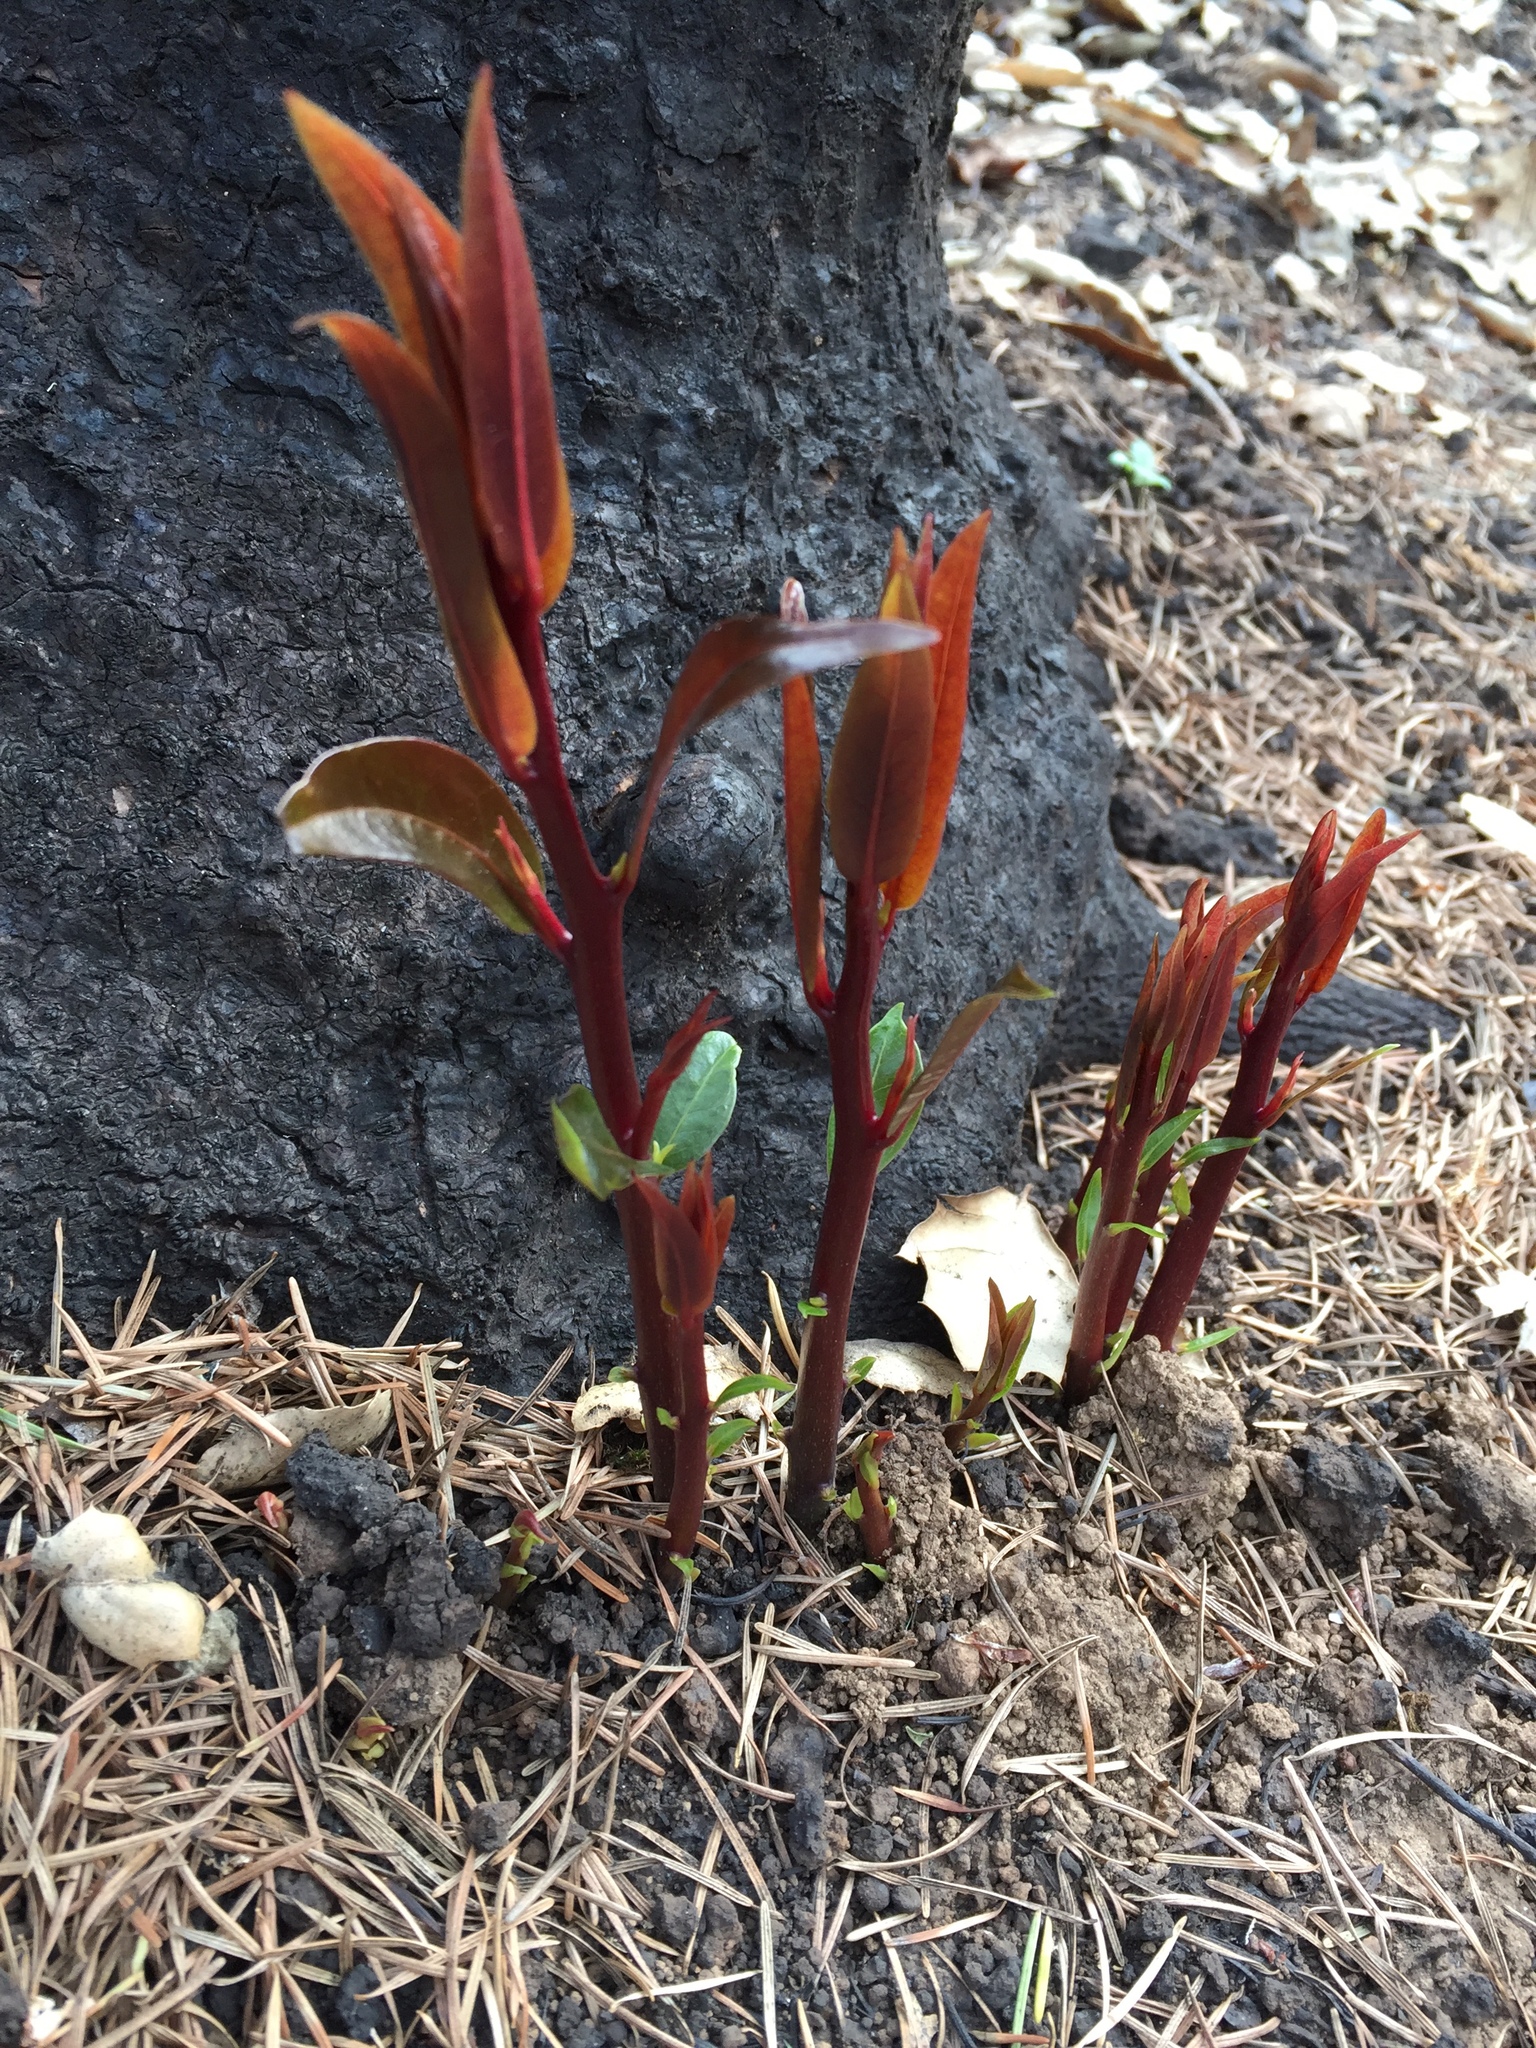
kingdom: Plantae
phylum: Tracheophyta
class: Magnoliopsida
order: Laurales
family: Lauraceae
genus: Umbellularia
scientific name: Umbellularia californica
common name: California bay
